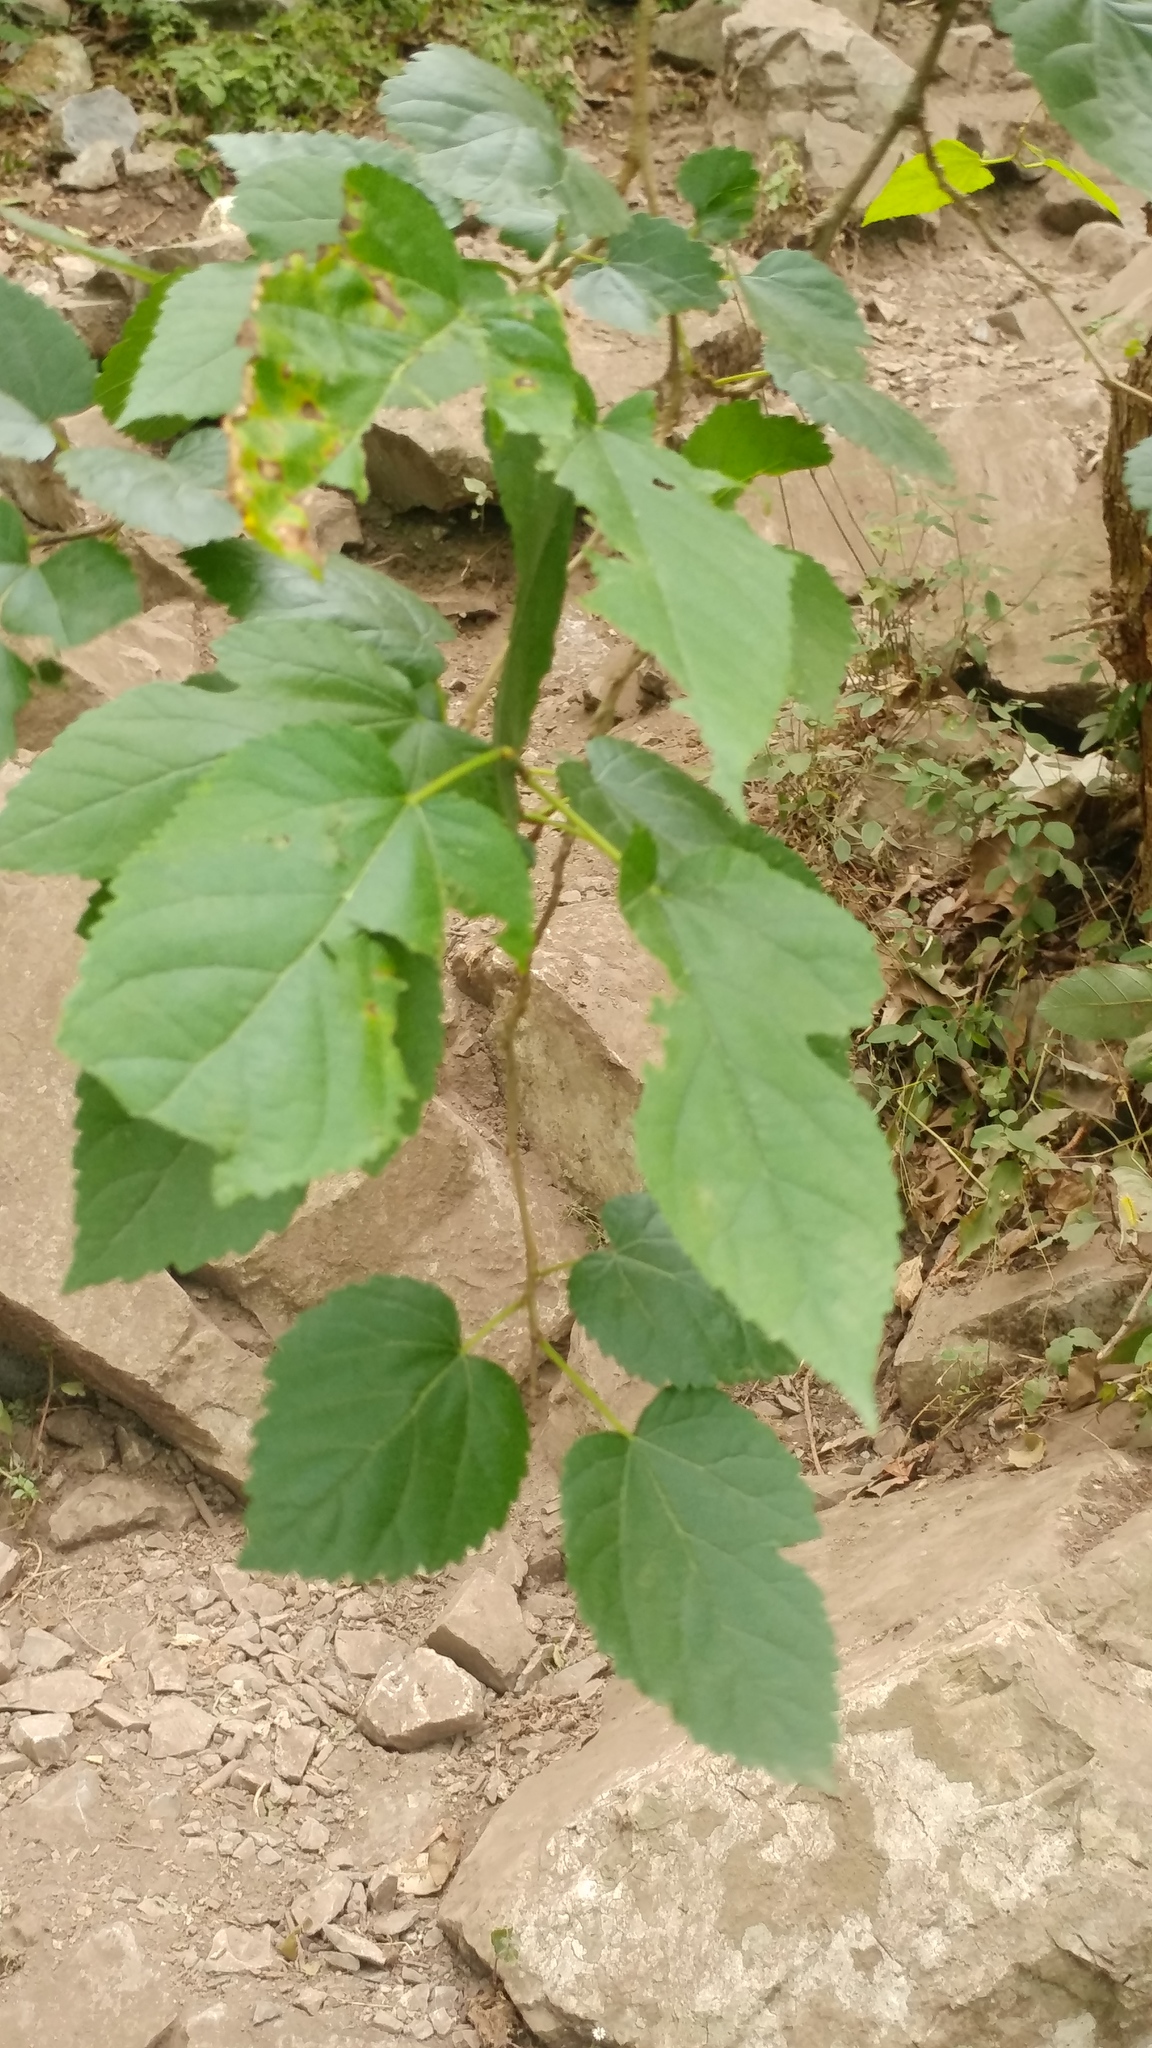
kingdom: Plantae
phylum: Tracheophyta
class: Magnoliopsida
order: Rosales
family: Moraceae
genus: Morus
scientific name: Morus rubra
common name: Red mulberry
